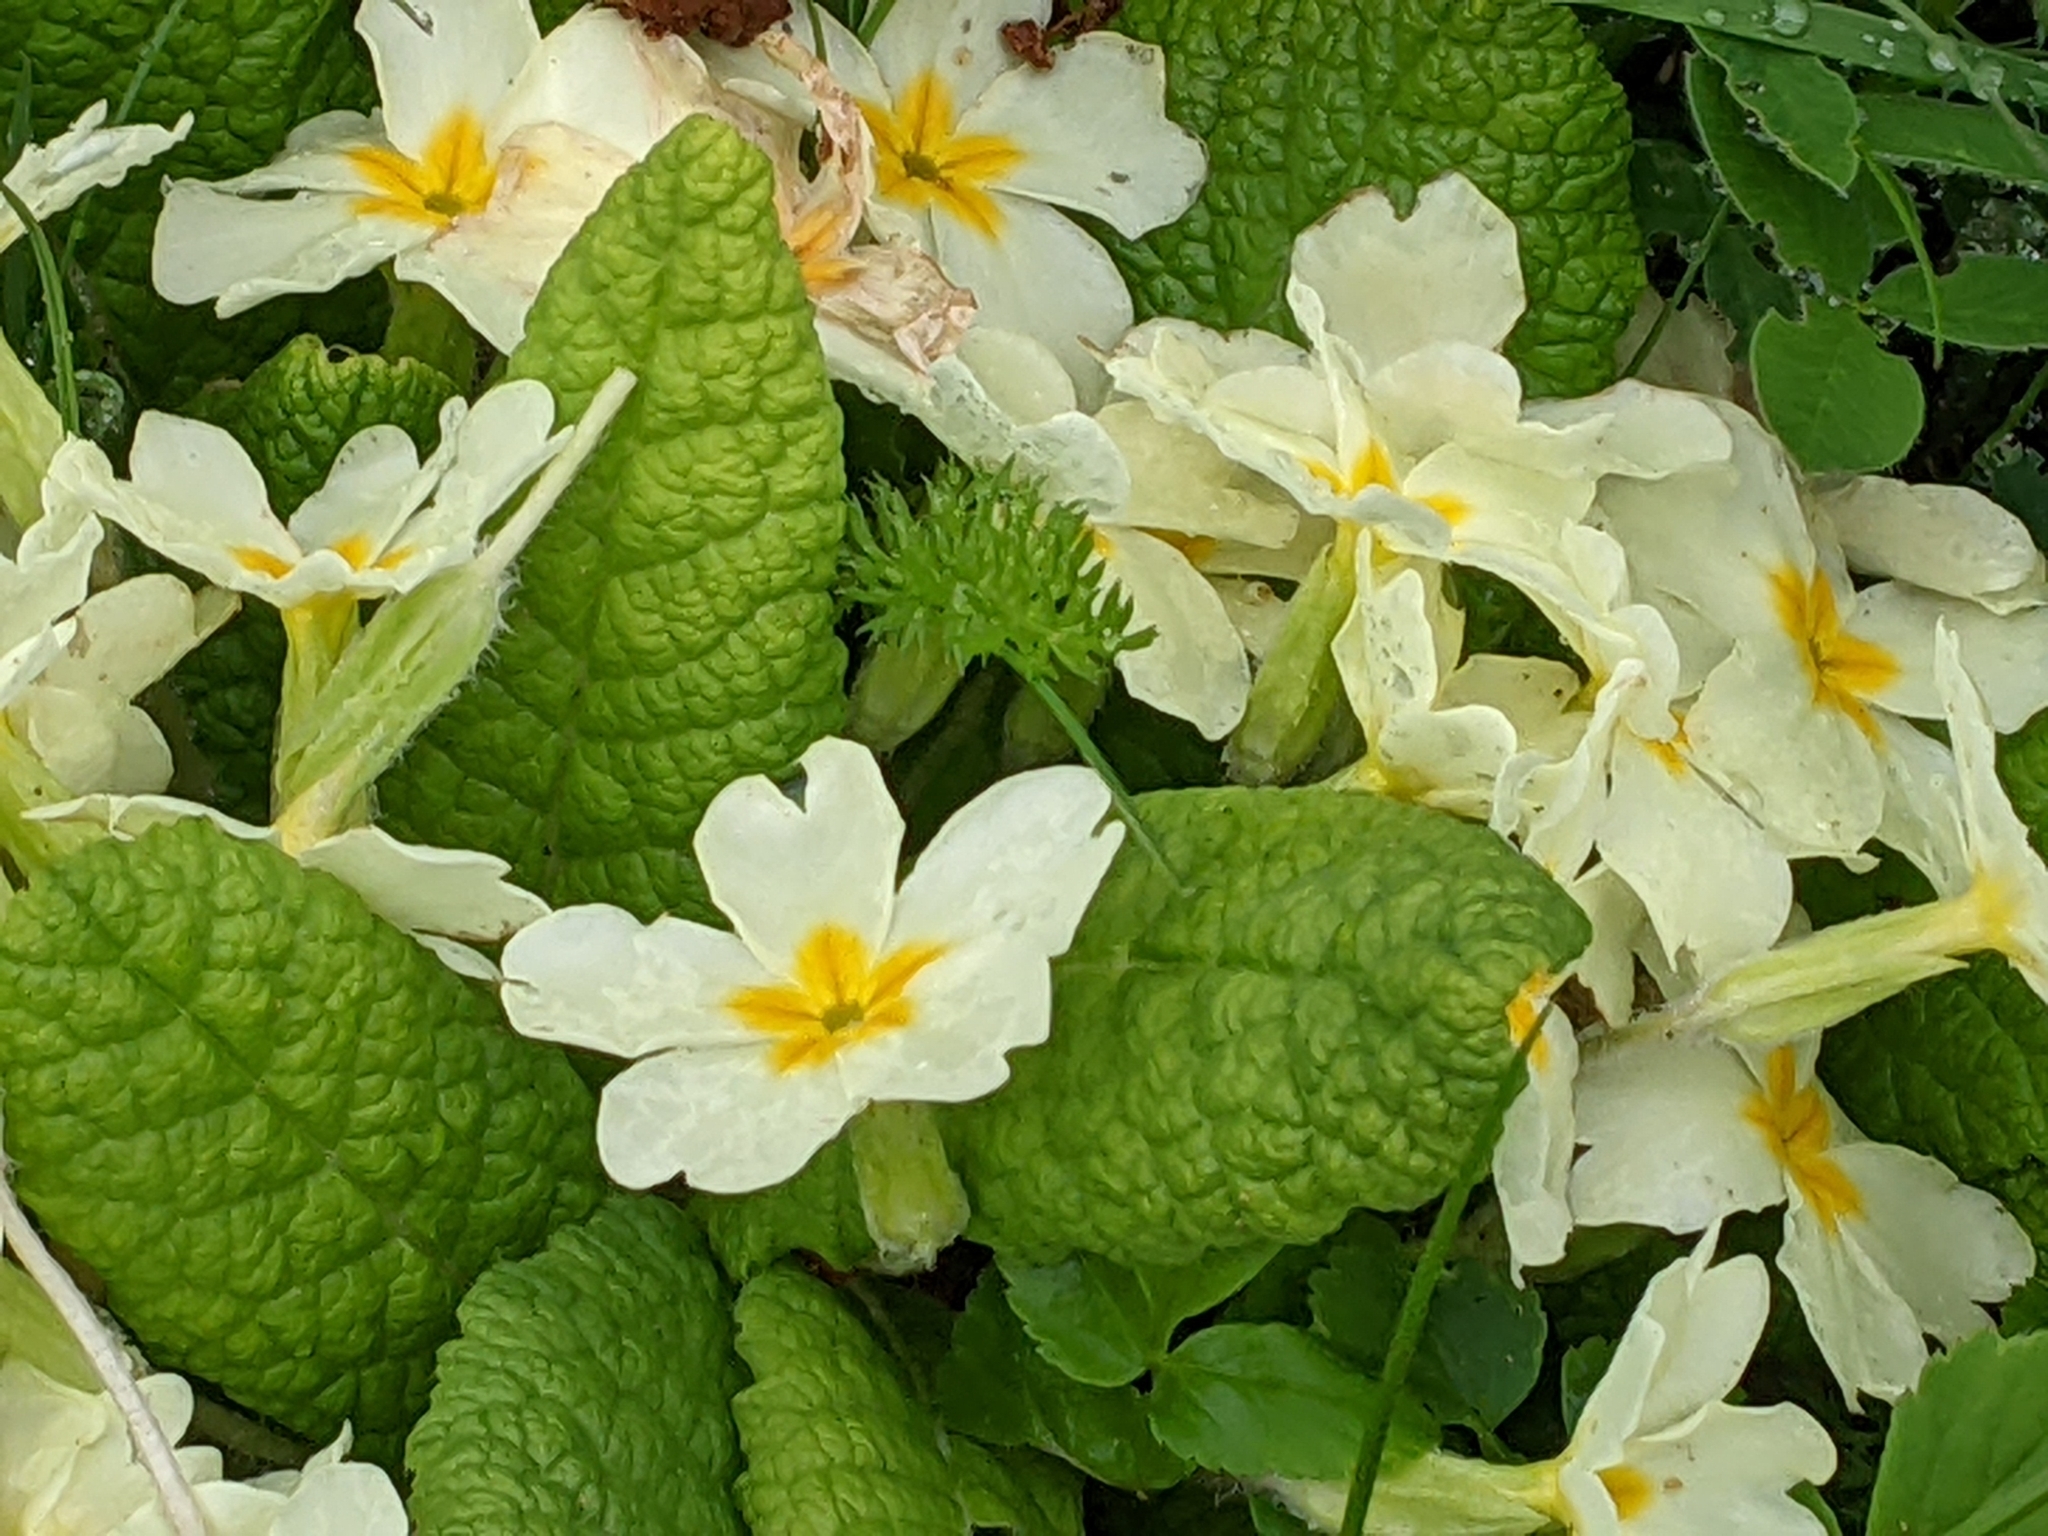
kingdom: Plantae
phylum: Tracheophyta
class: Magnoliopsida
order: Ericales
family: Primulaceae
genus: Primula
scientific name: Primula vulgaris
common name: Primrose
